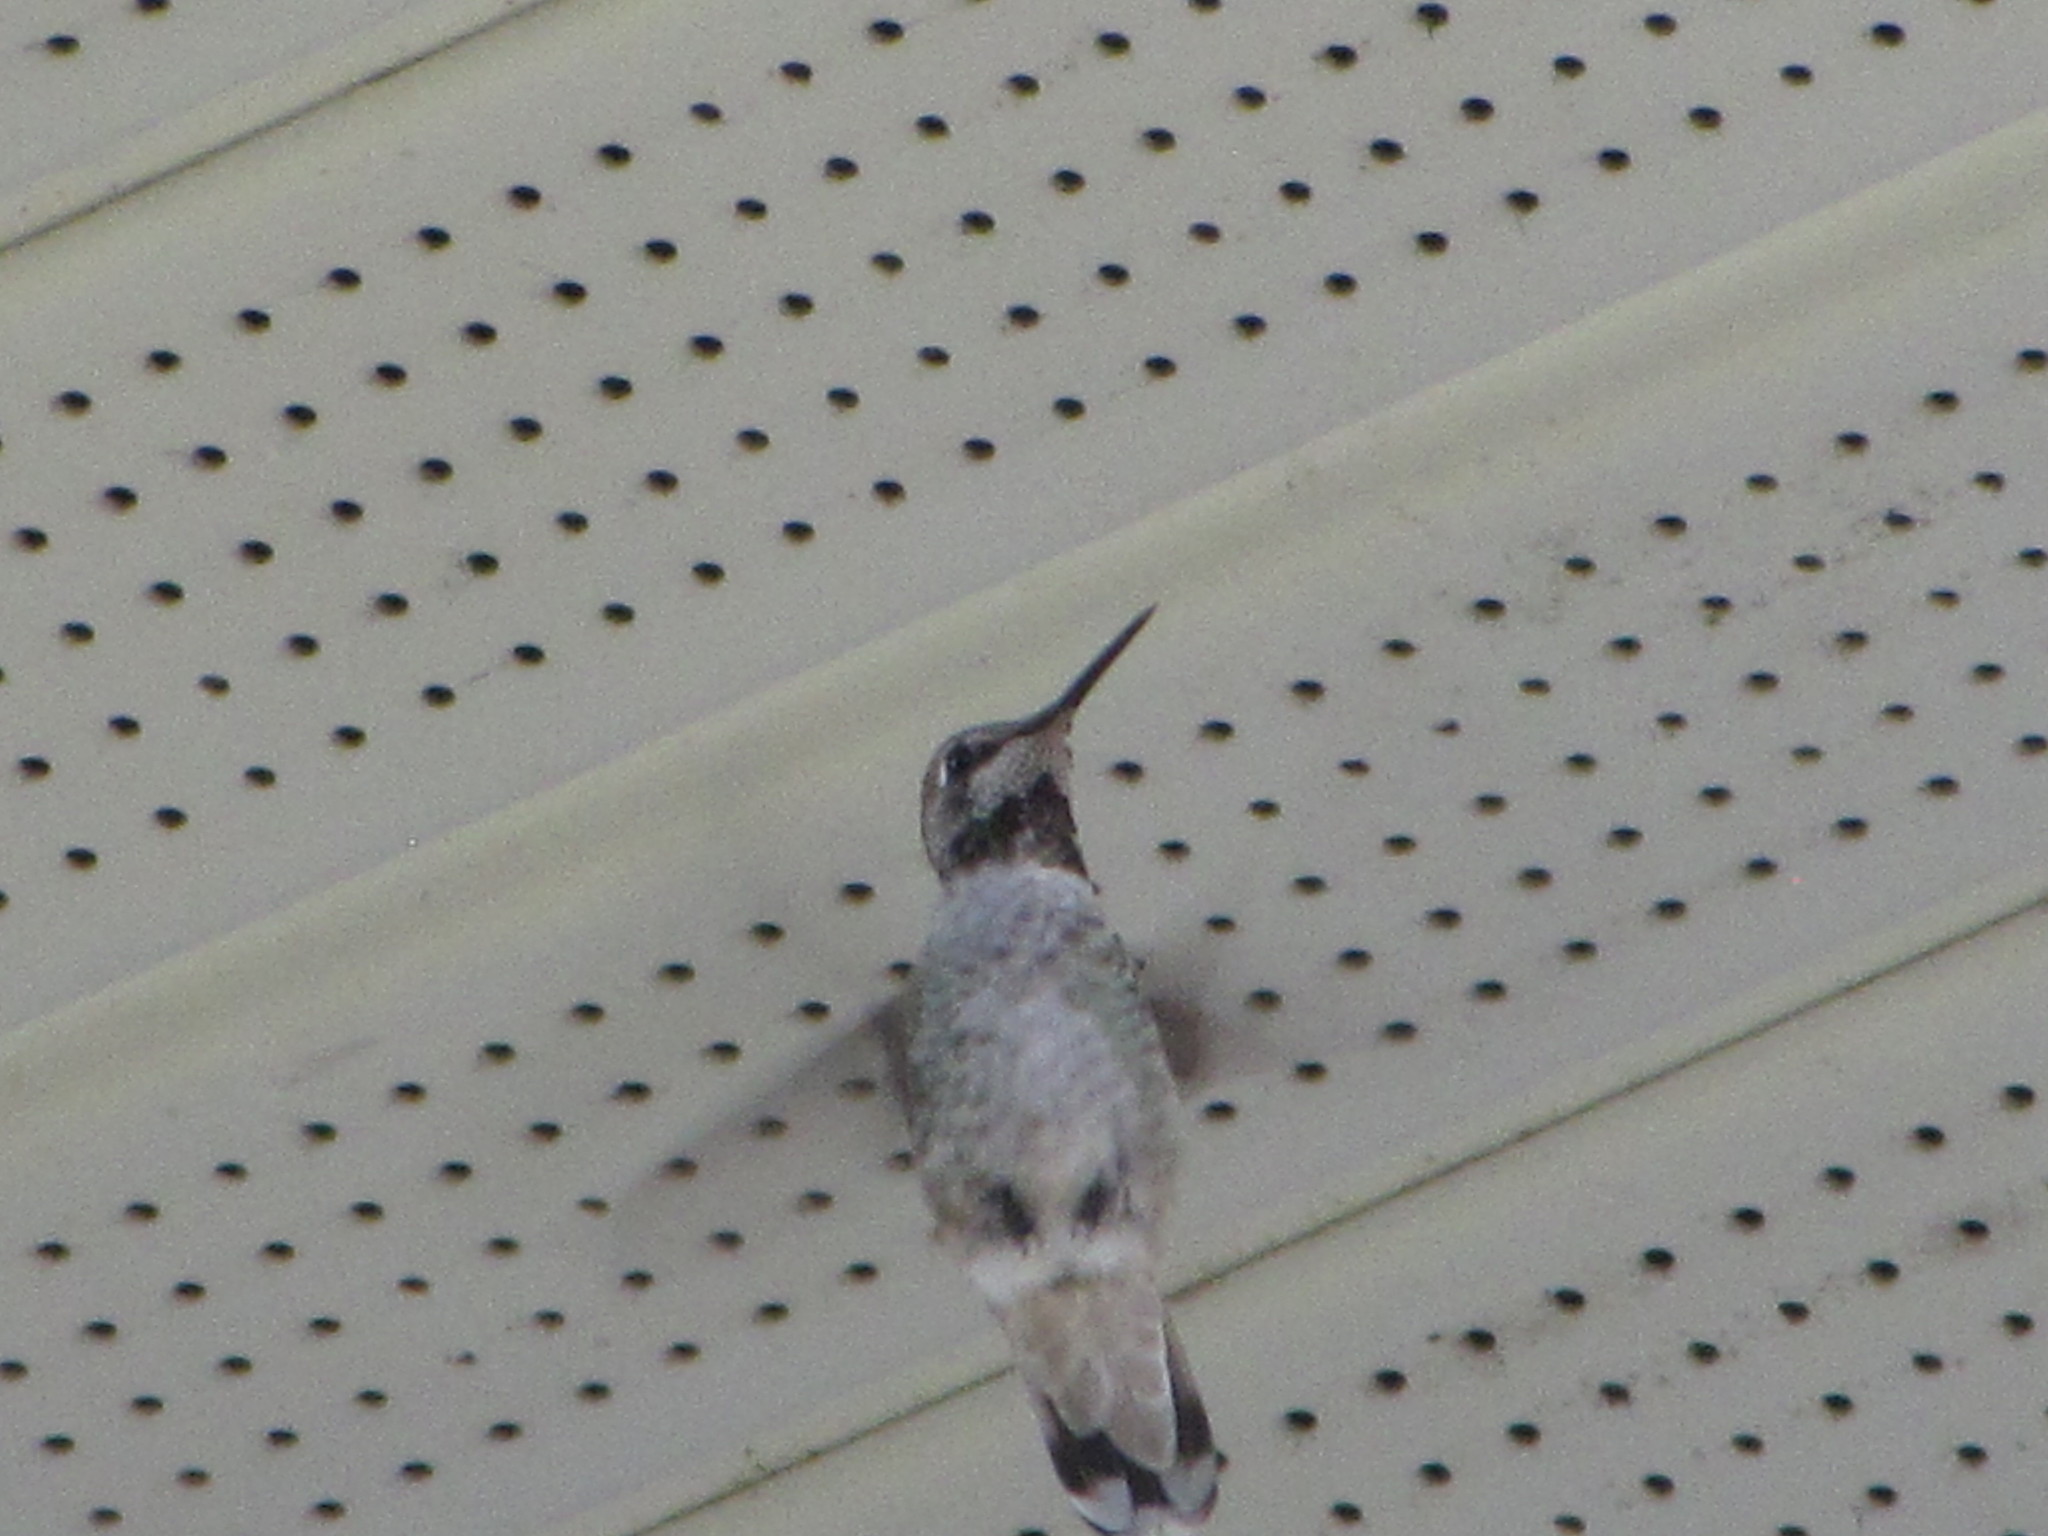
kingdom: Animalia
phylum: Chordata
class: Aves
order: Apodiformes
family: Trochilidae
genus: Calypte
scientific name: Calypte anna
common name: Anna's hummingbird
